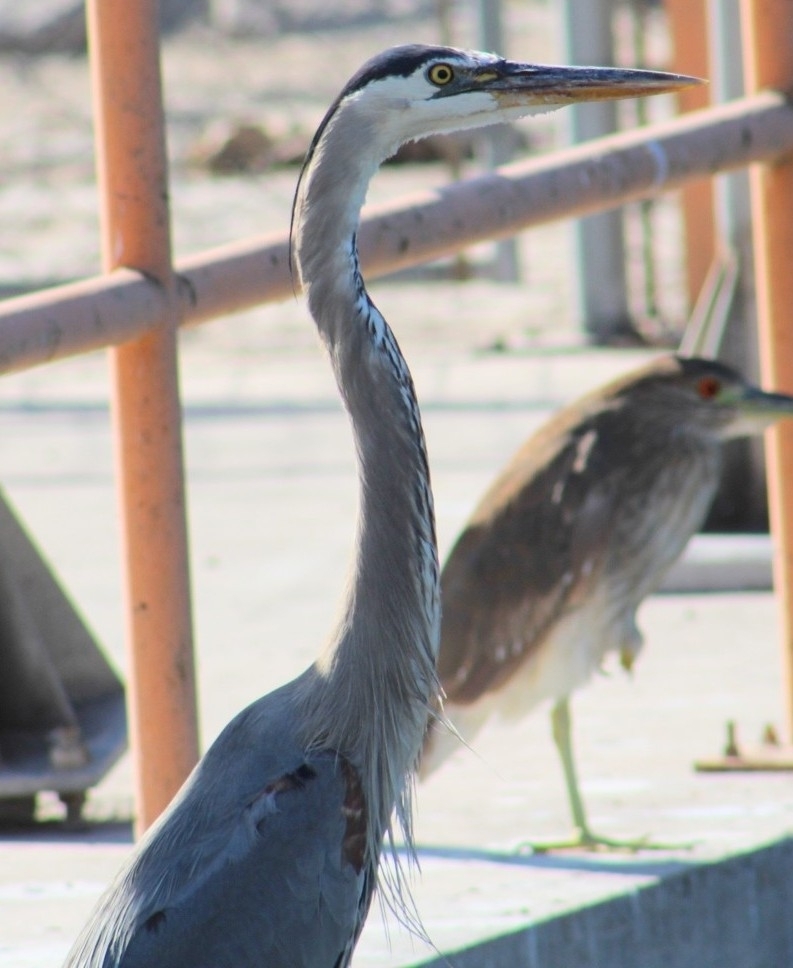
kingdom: Animalia
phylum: Chordata
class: Aves
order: Pelecaniformes
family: Ardeidae
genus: Ardea
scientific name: Ardea herodias
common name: Great blue heron
